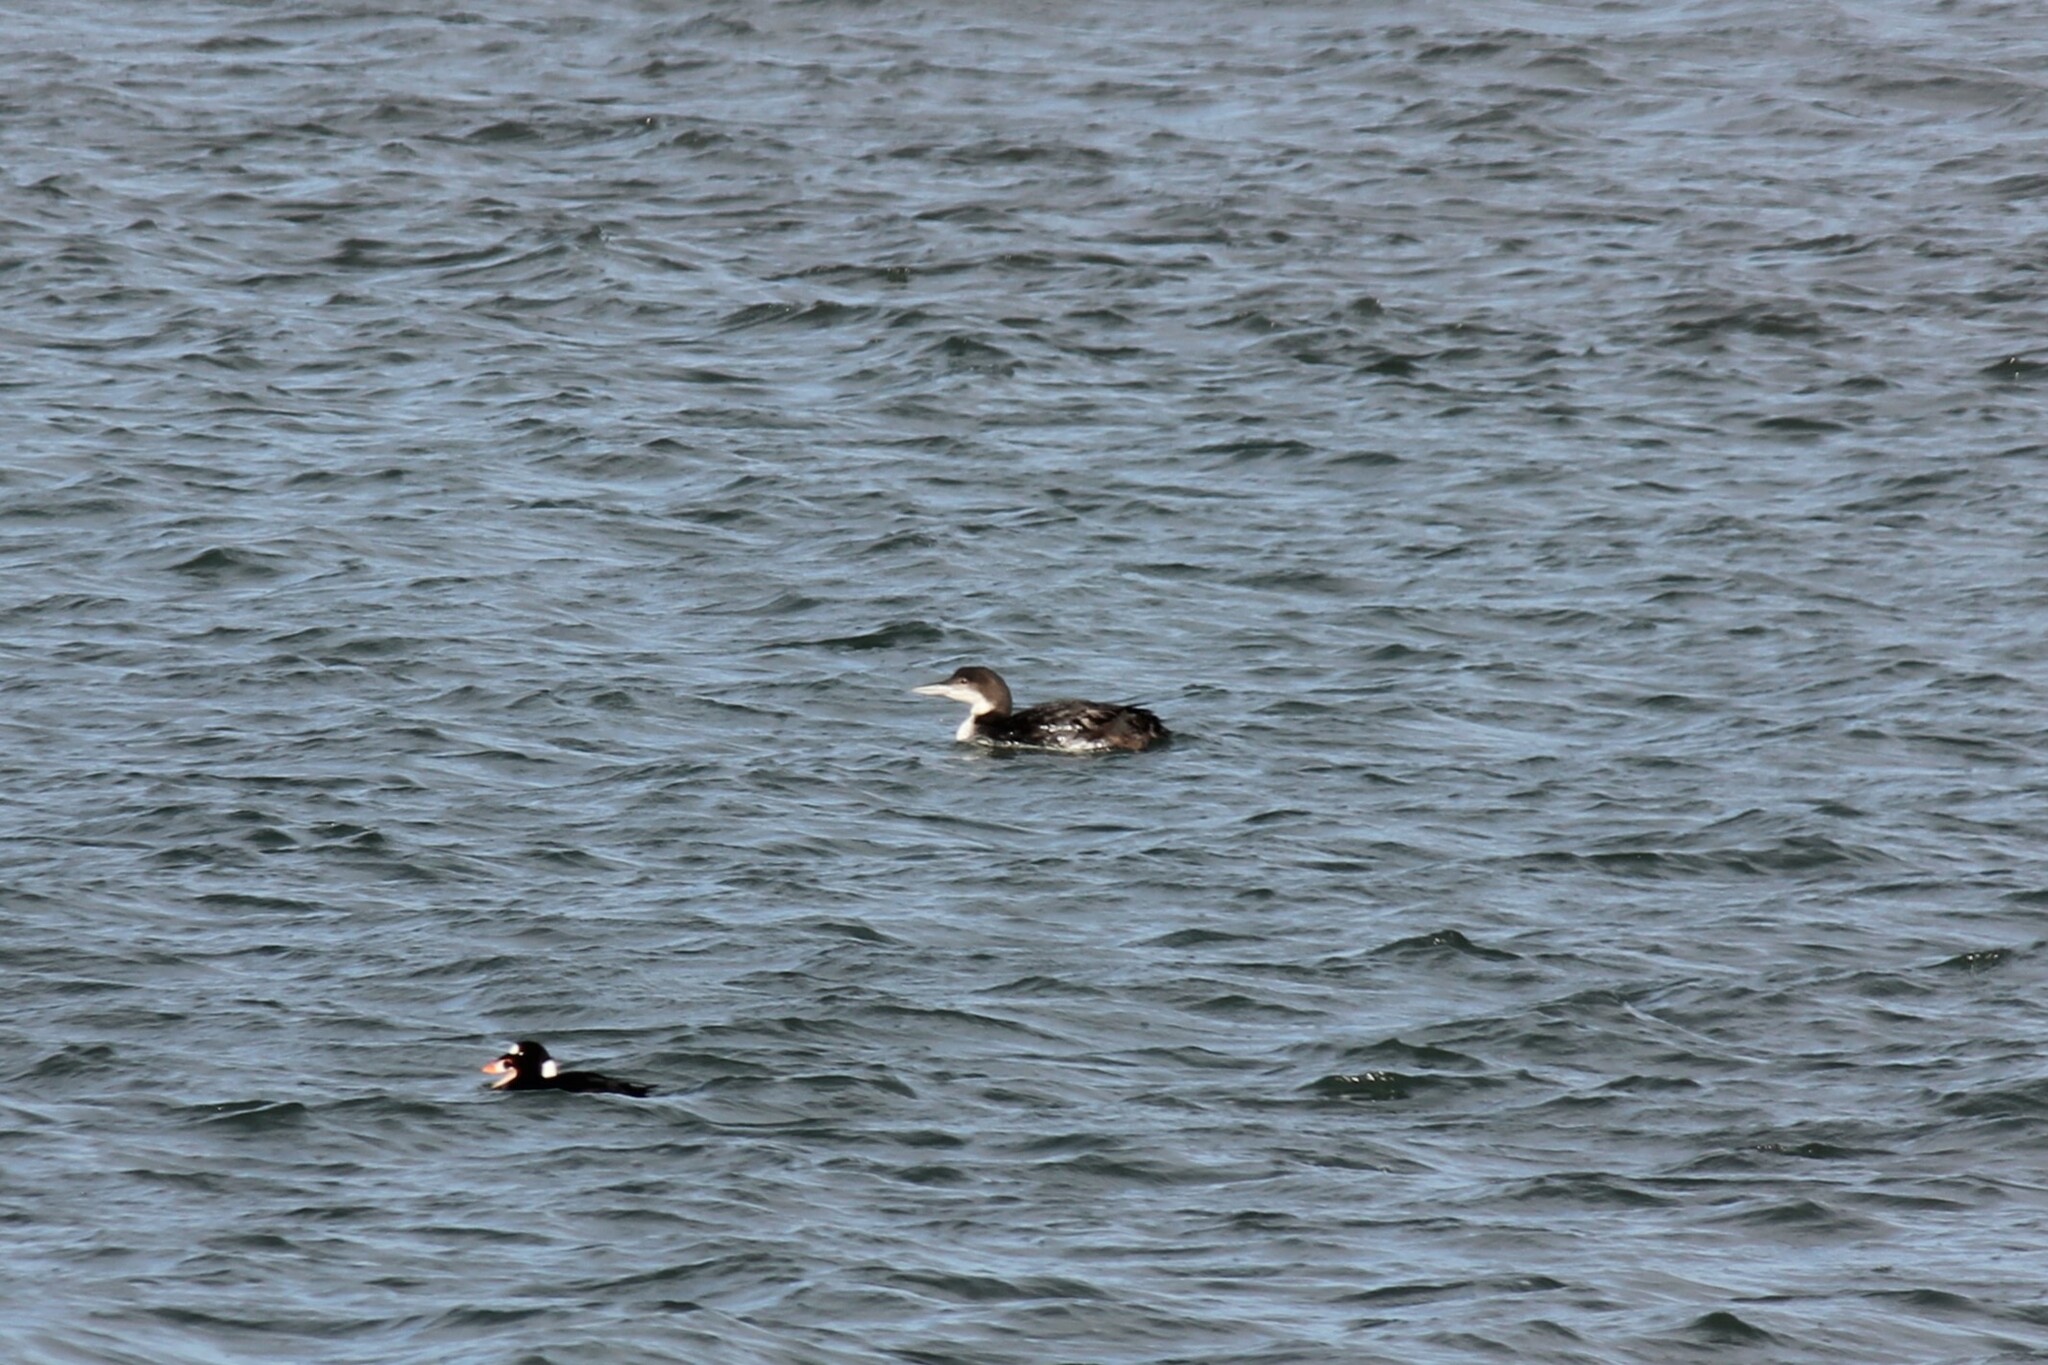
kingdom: Animalia
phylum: Chordata
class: Aves
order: Gaviiformes
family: Gaviidae
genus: Gavia
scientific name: Gavia immer
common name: Common loon
